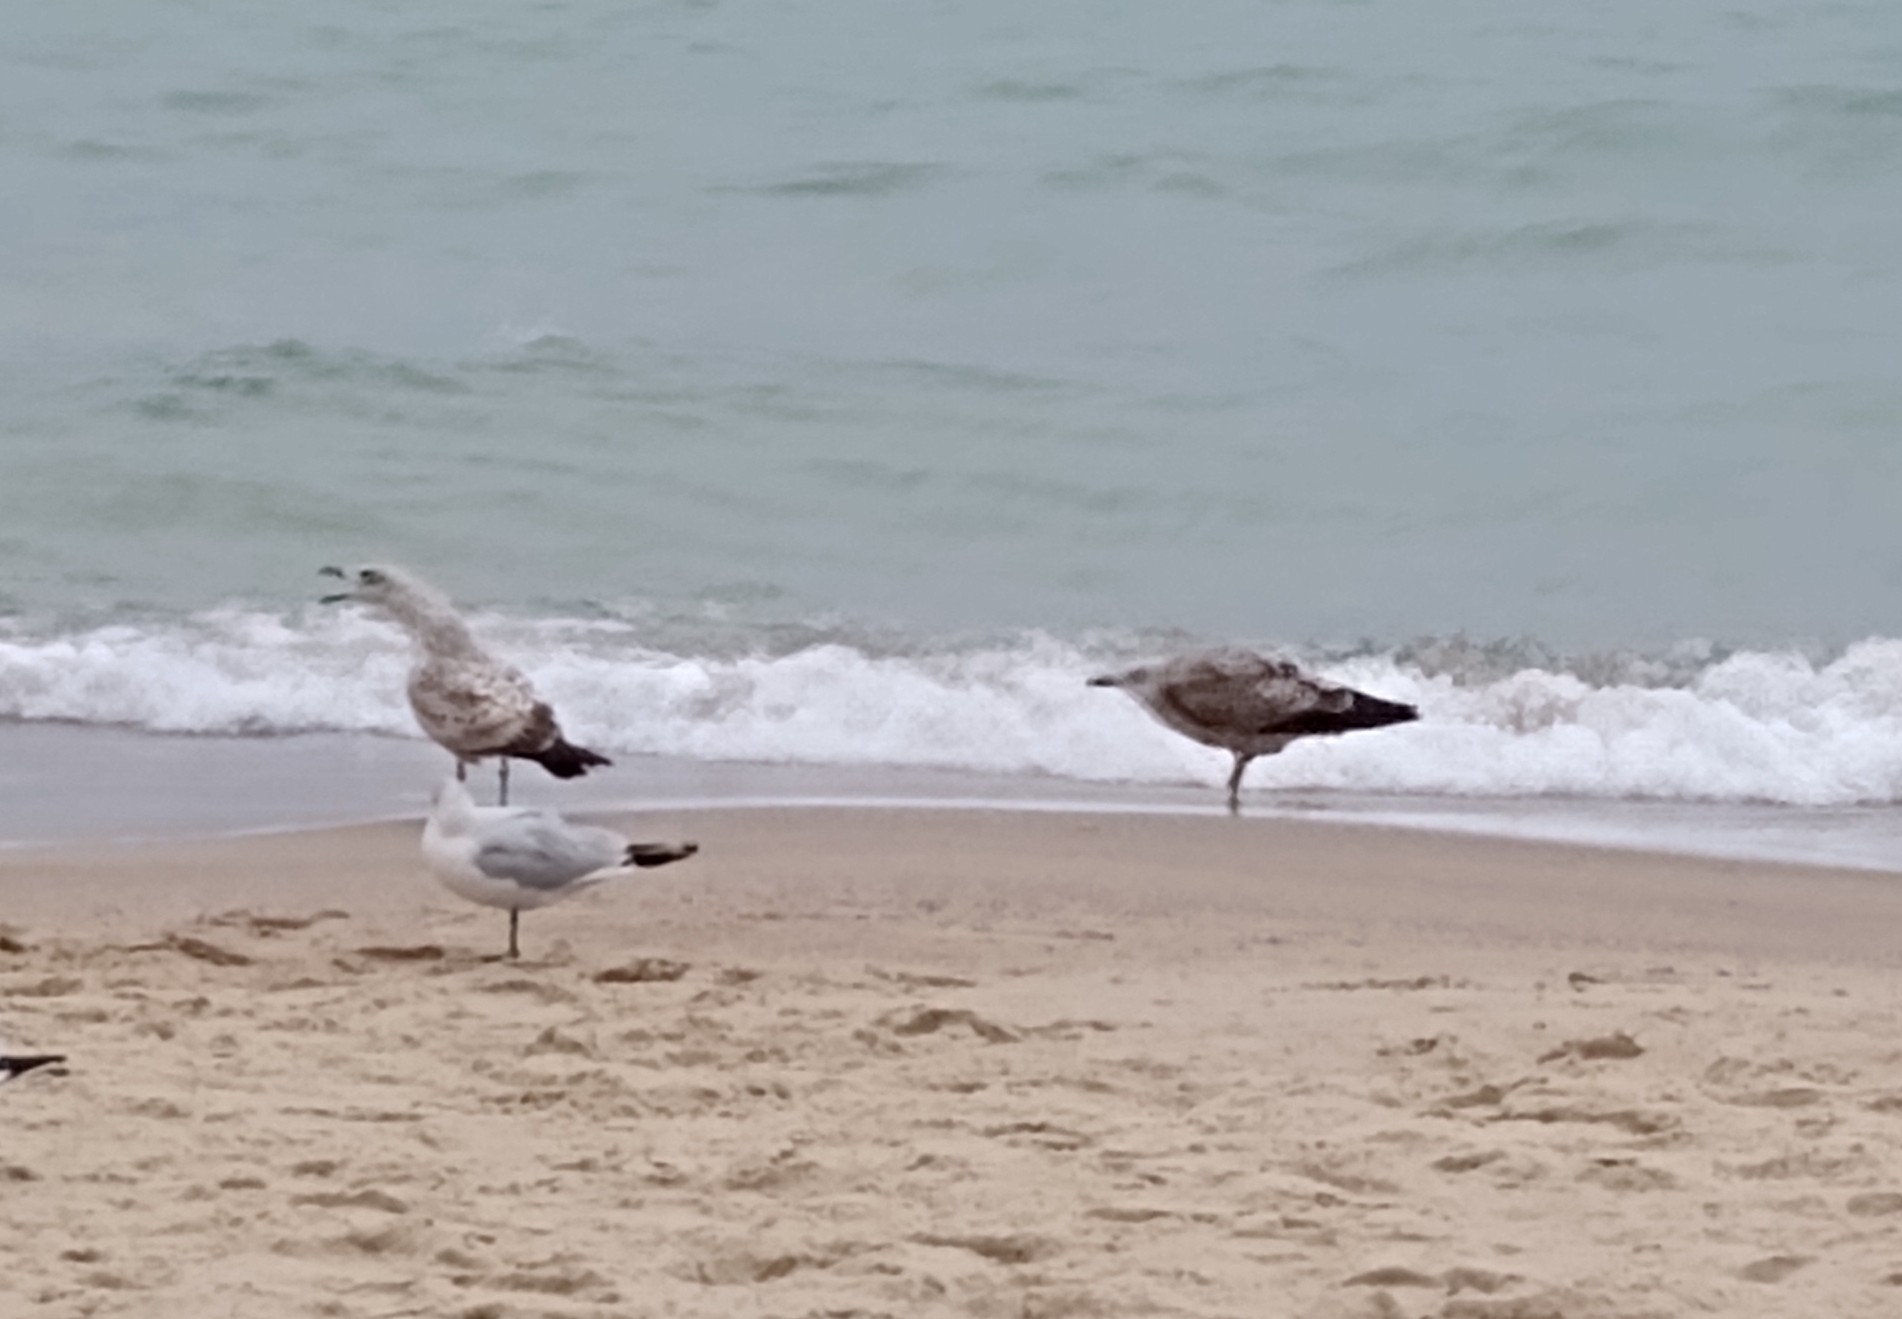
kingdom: Animalia
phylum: Chordata
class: Aves
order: Charadriiformes
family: Laridae
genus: Larus
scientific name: Larus michahellis
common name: Yellow-legged gull
